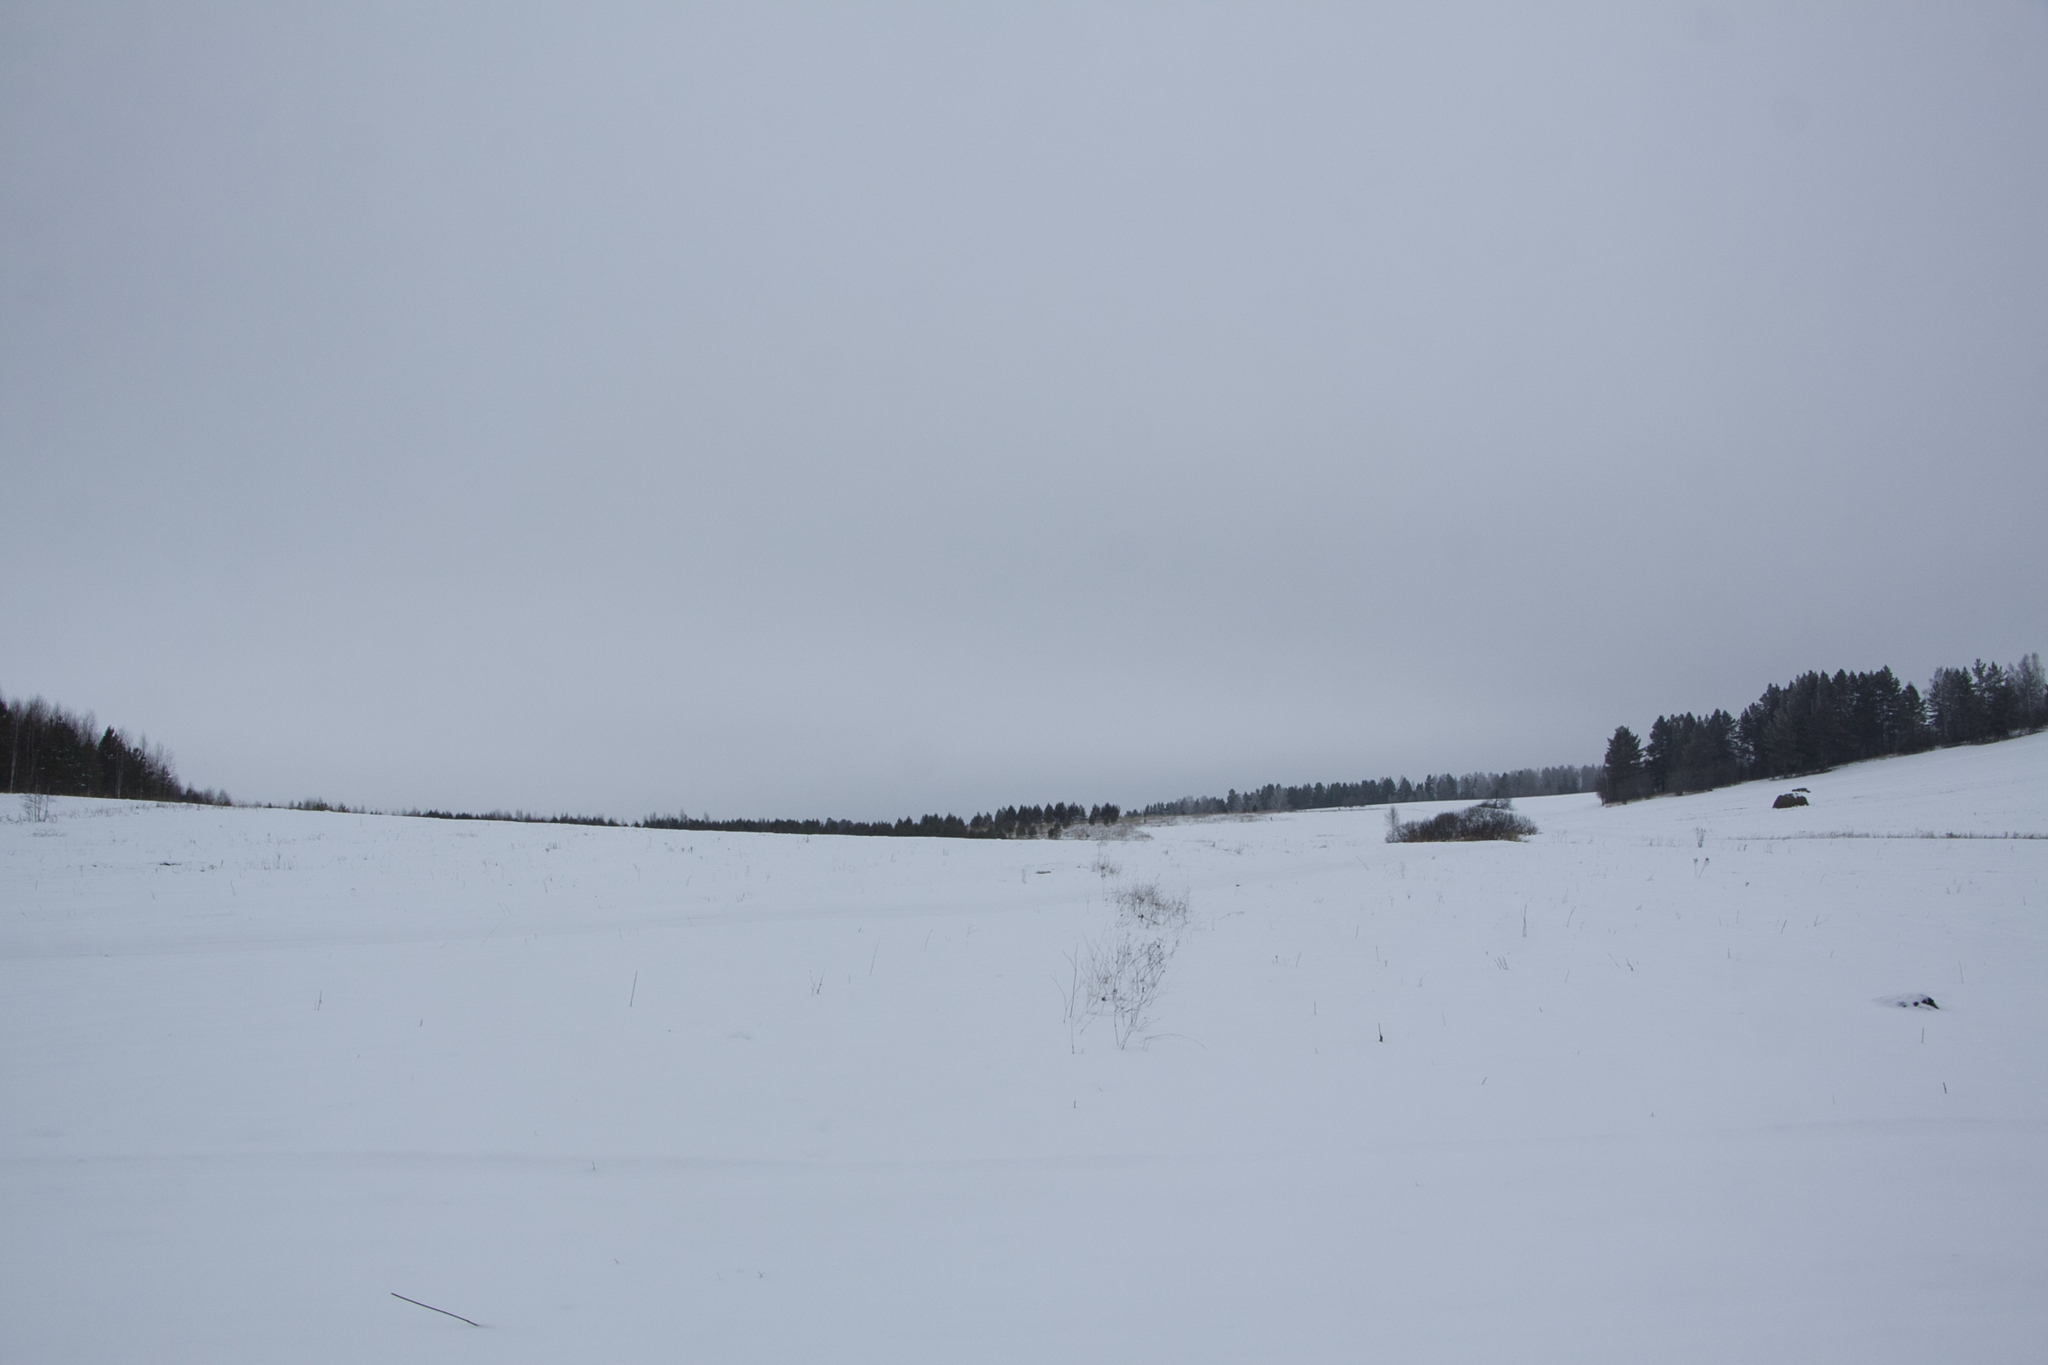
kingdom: Plantae
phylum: Tracheophyta
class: Pinopsida
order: Pinales
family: Pinaceae
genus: Pinus
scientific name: Pinus sylvestris
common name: Scots pine
